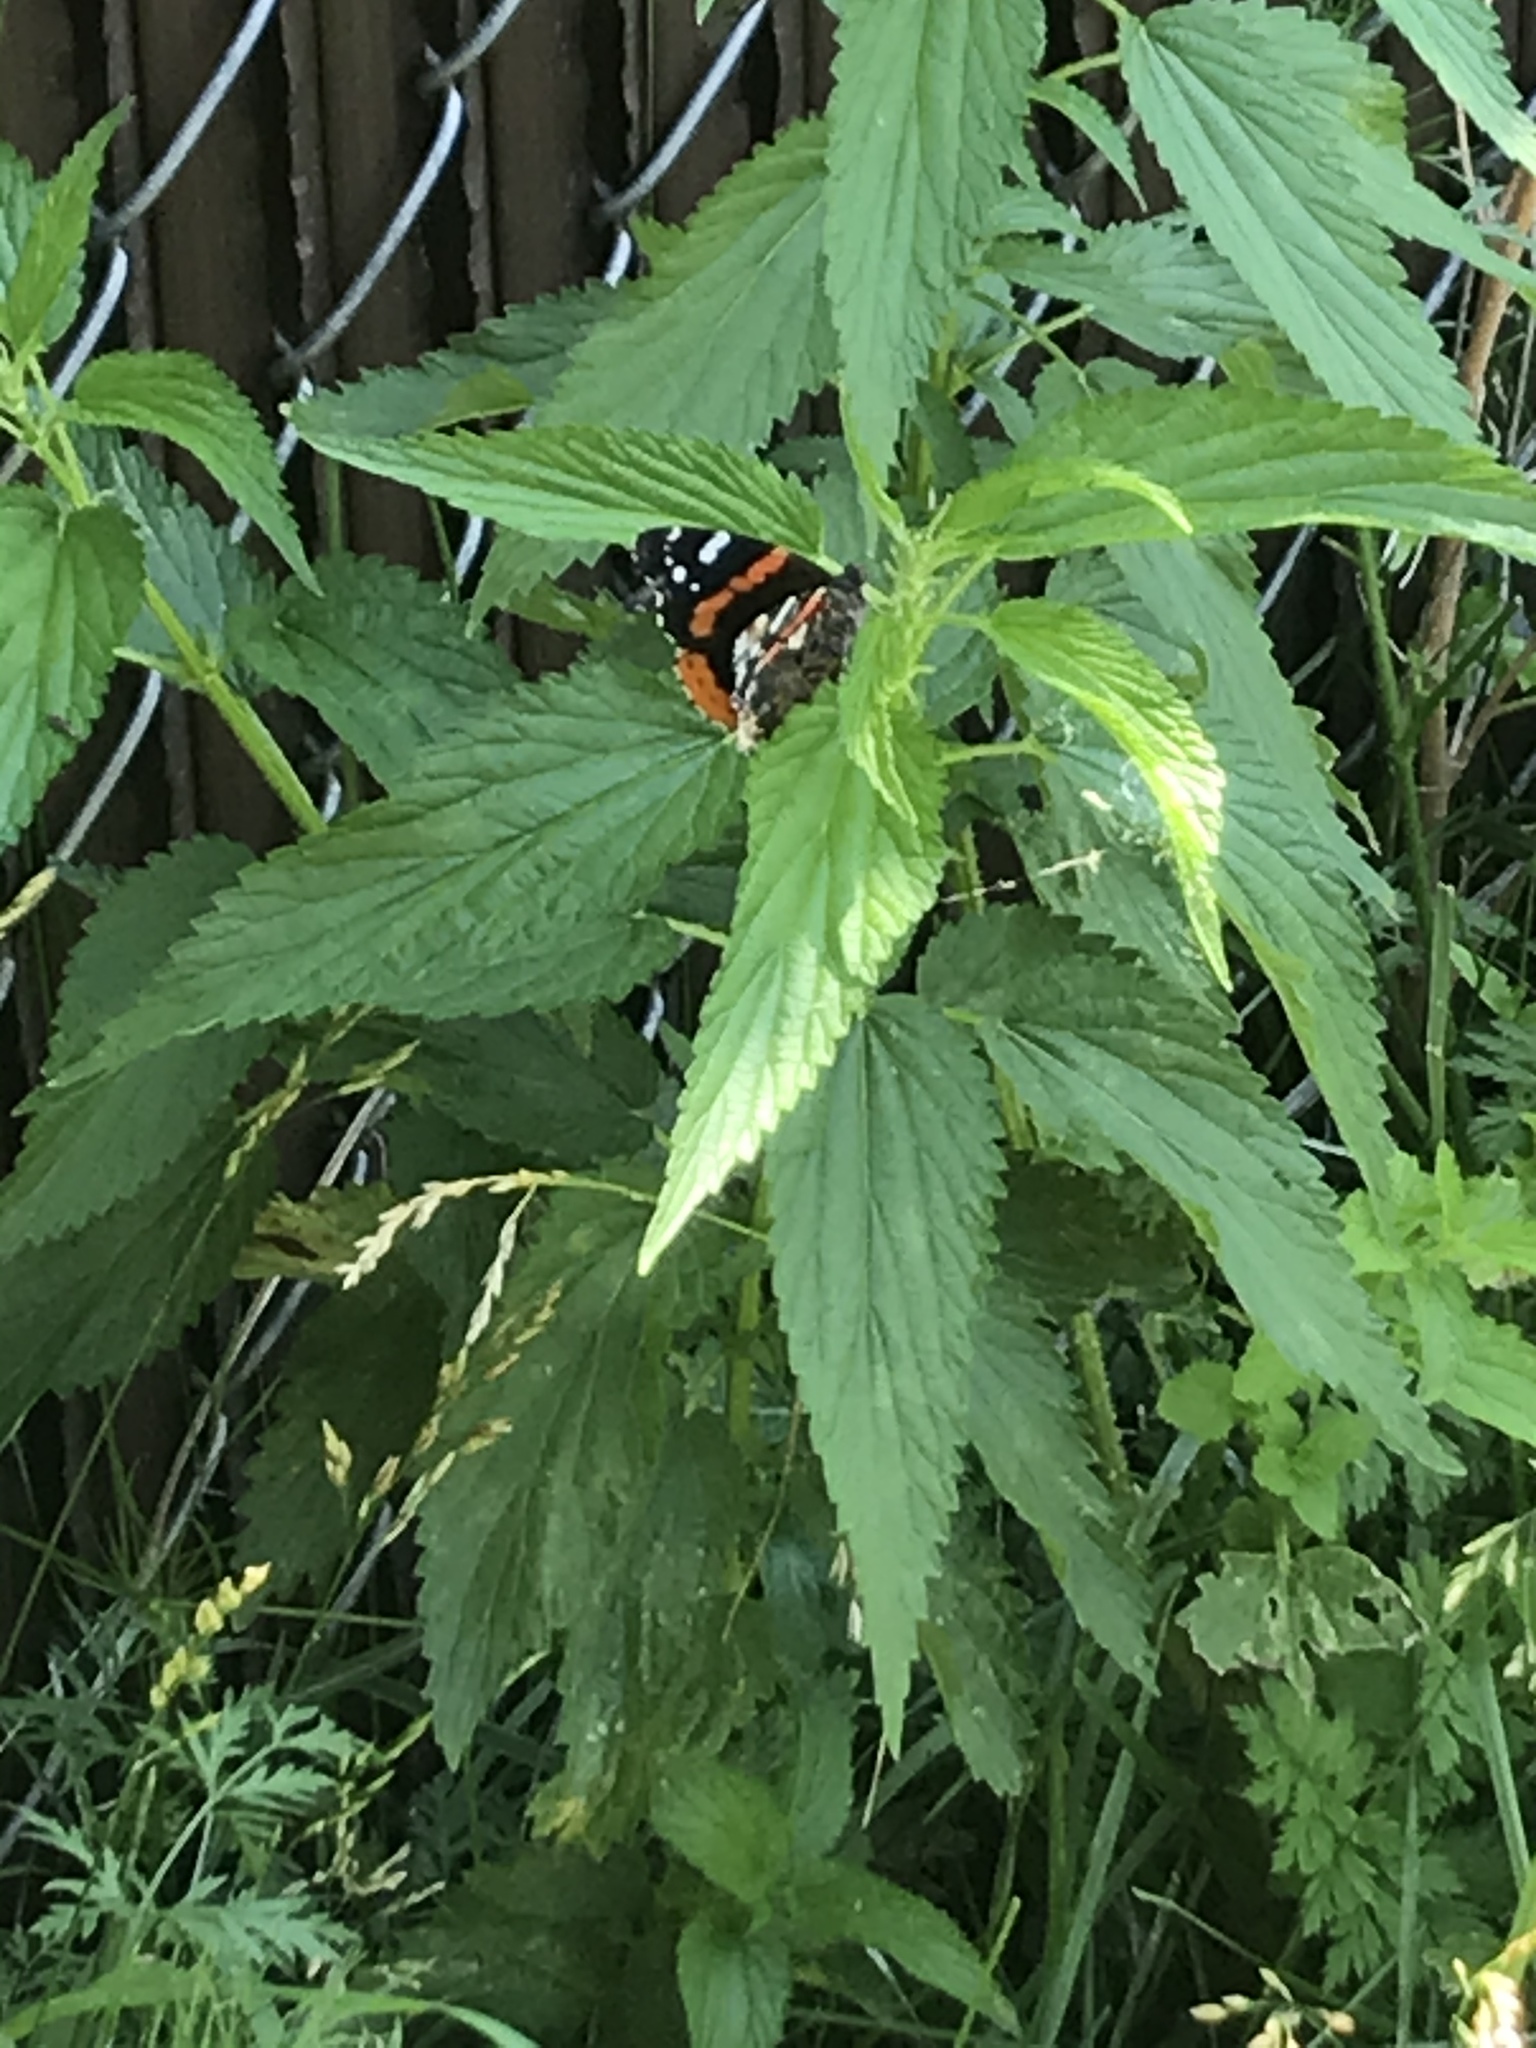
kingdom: Animalia
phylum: Arthropoda
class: Insecta
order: Lepidoptera
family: Nymphalidae
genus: Vanessa
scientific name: Vanessa atalanta
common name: Red admiral
